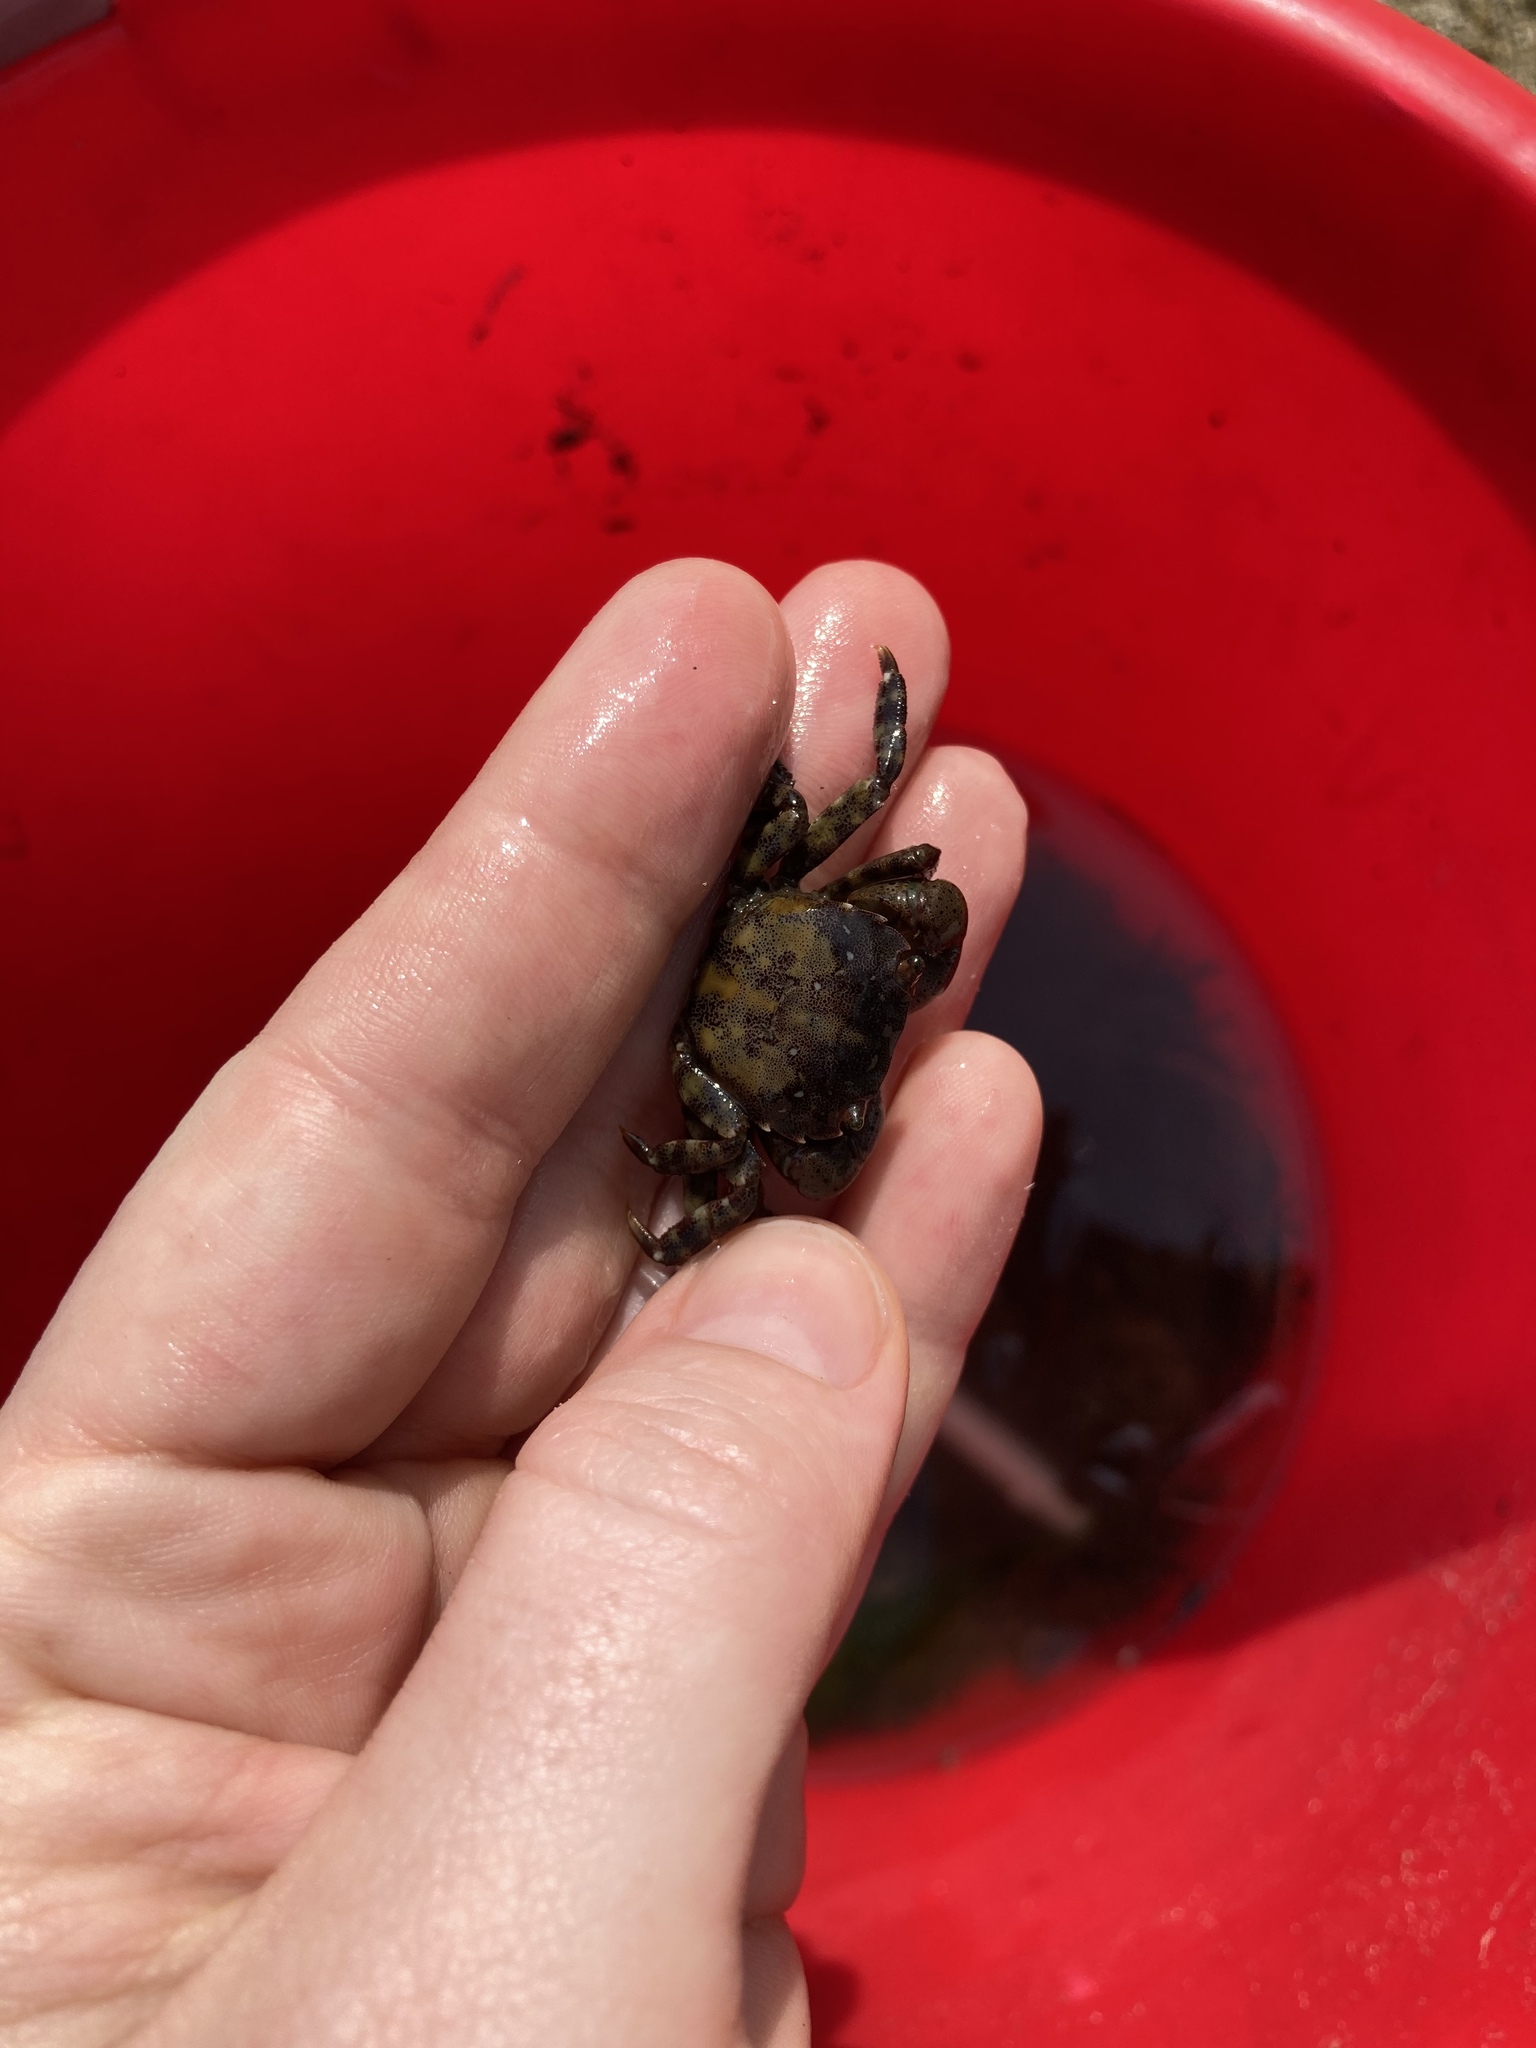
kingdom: Animalia
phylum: Arthropoda
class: Malacostraca
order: Decapoda
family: Varunidae
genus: Hemigrapsus
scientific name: Hemigrapsus sanguineus
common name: Asian shore crab
